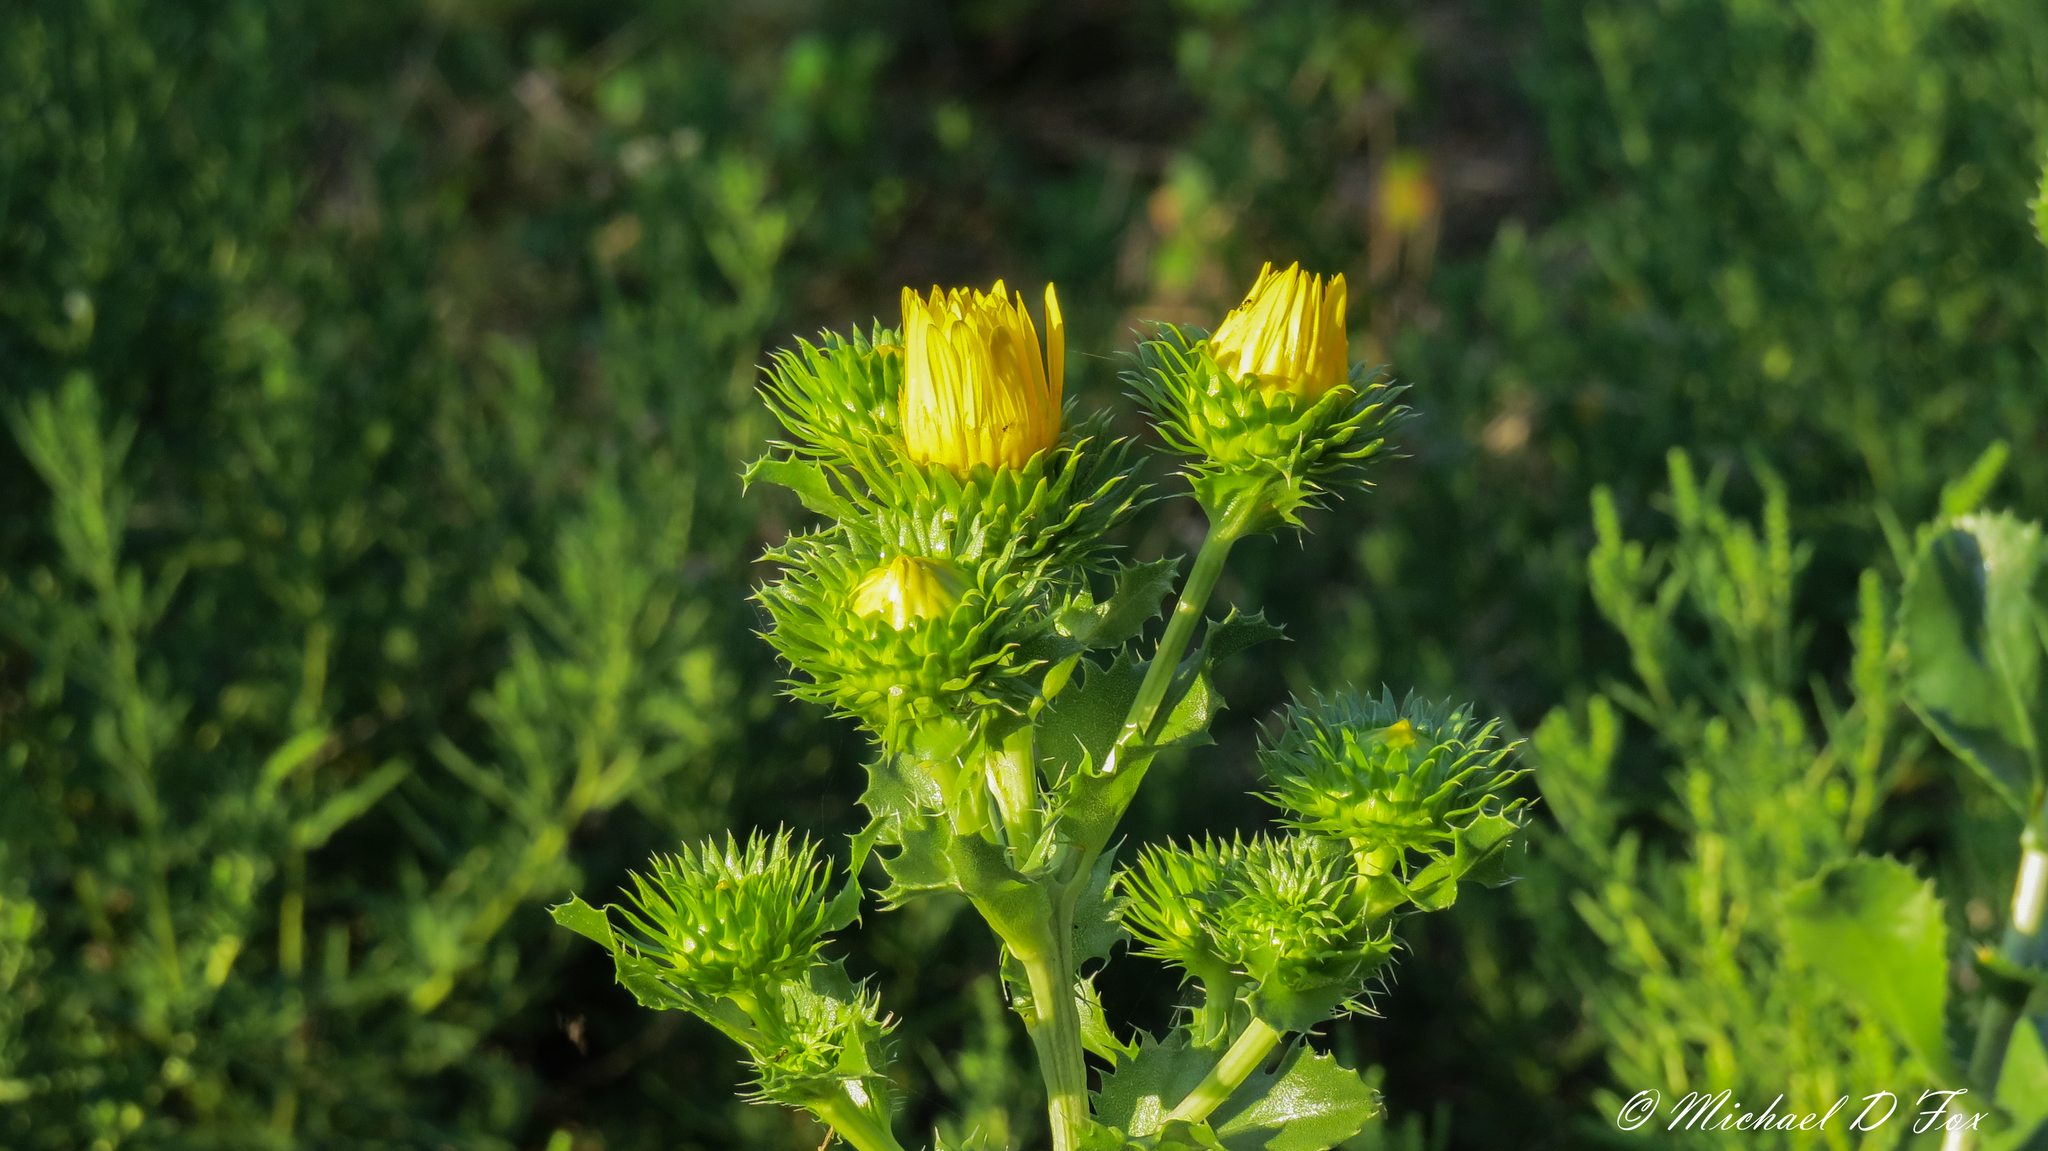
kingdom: Plantae
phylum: Tracheophyta
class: Magnoliopsida
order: Asterales
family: Asteraceae
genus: Grindelia
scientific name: Grindelia ciliata
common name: Goldenweed
